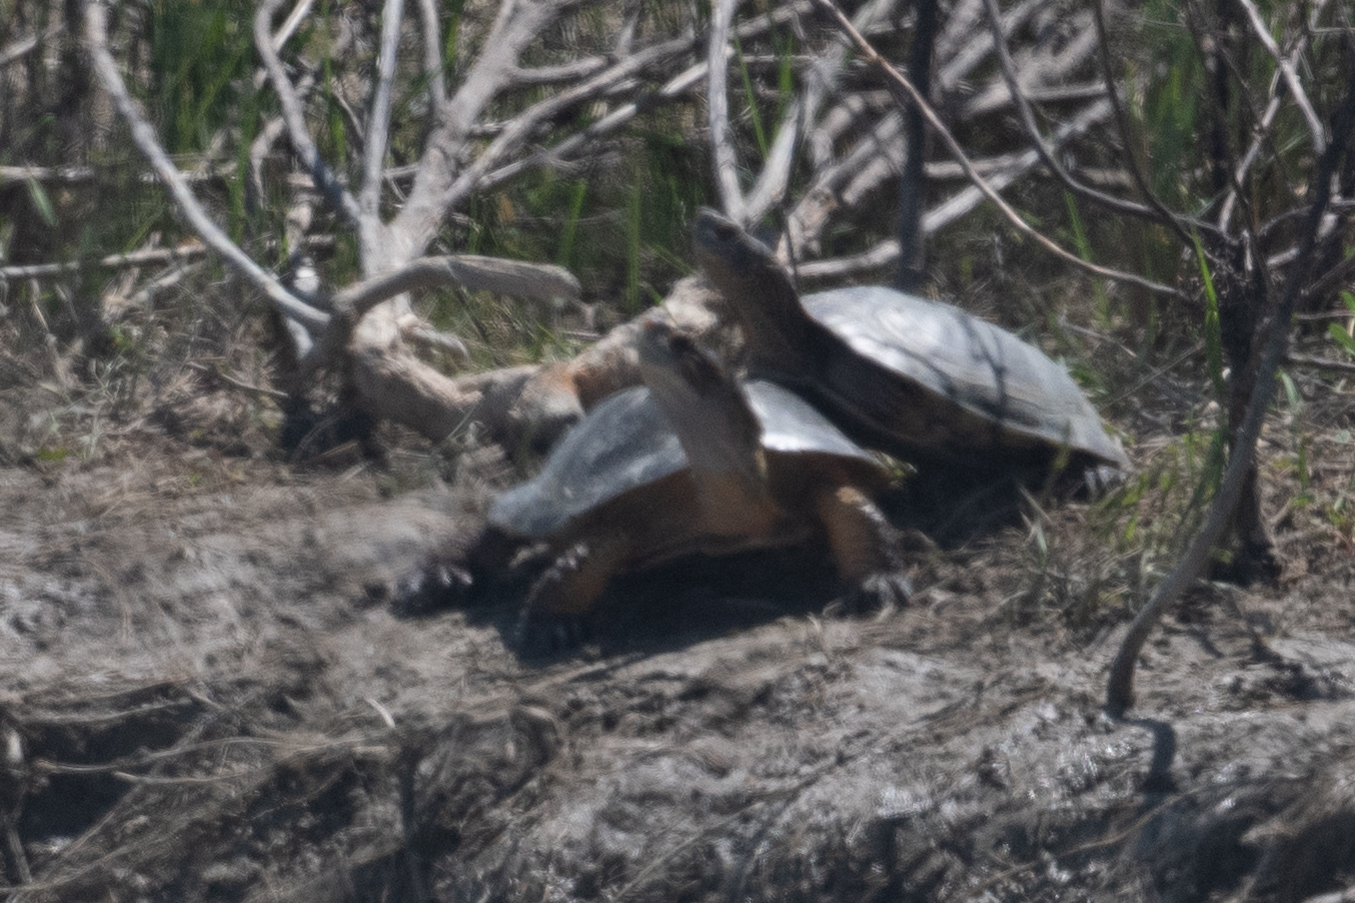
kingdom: Animalia
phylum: Chordata
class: Testudines
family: Emydidae
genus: Actinemys
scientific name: Actinemys marmorata
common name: Western pond turtle
